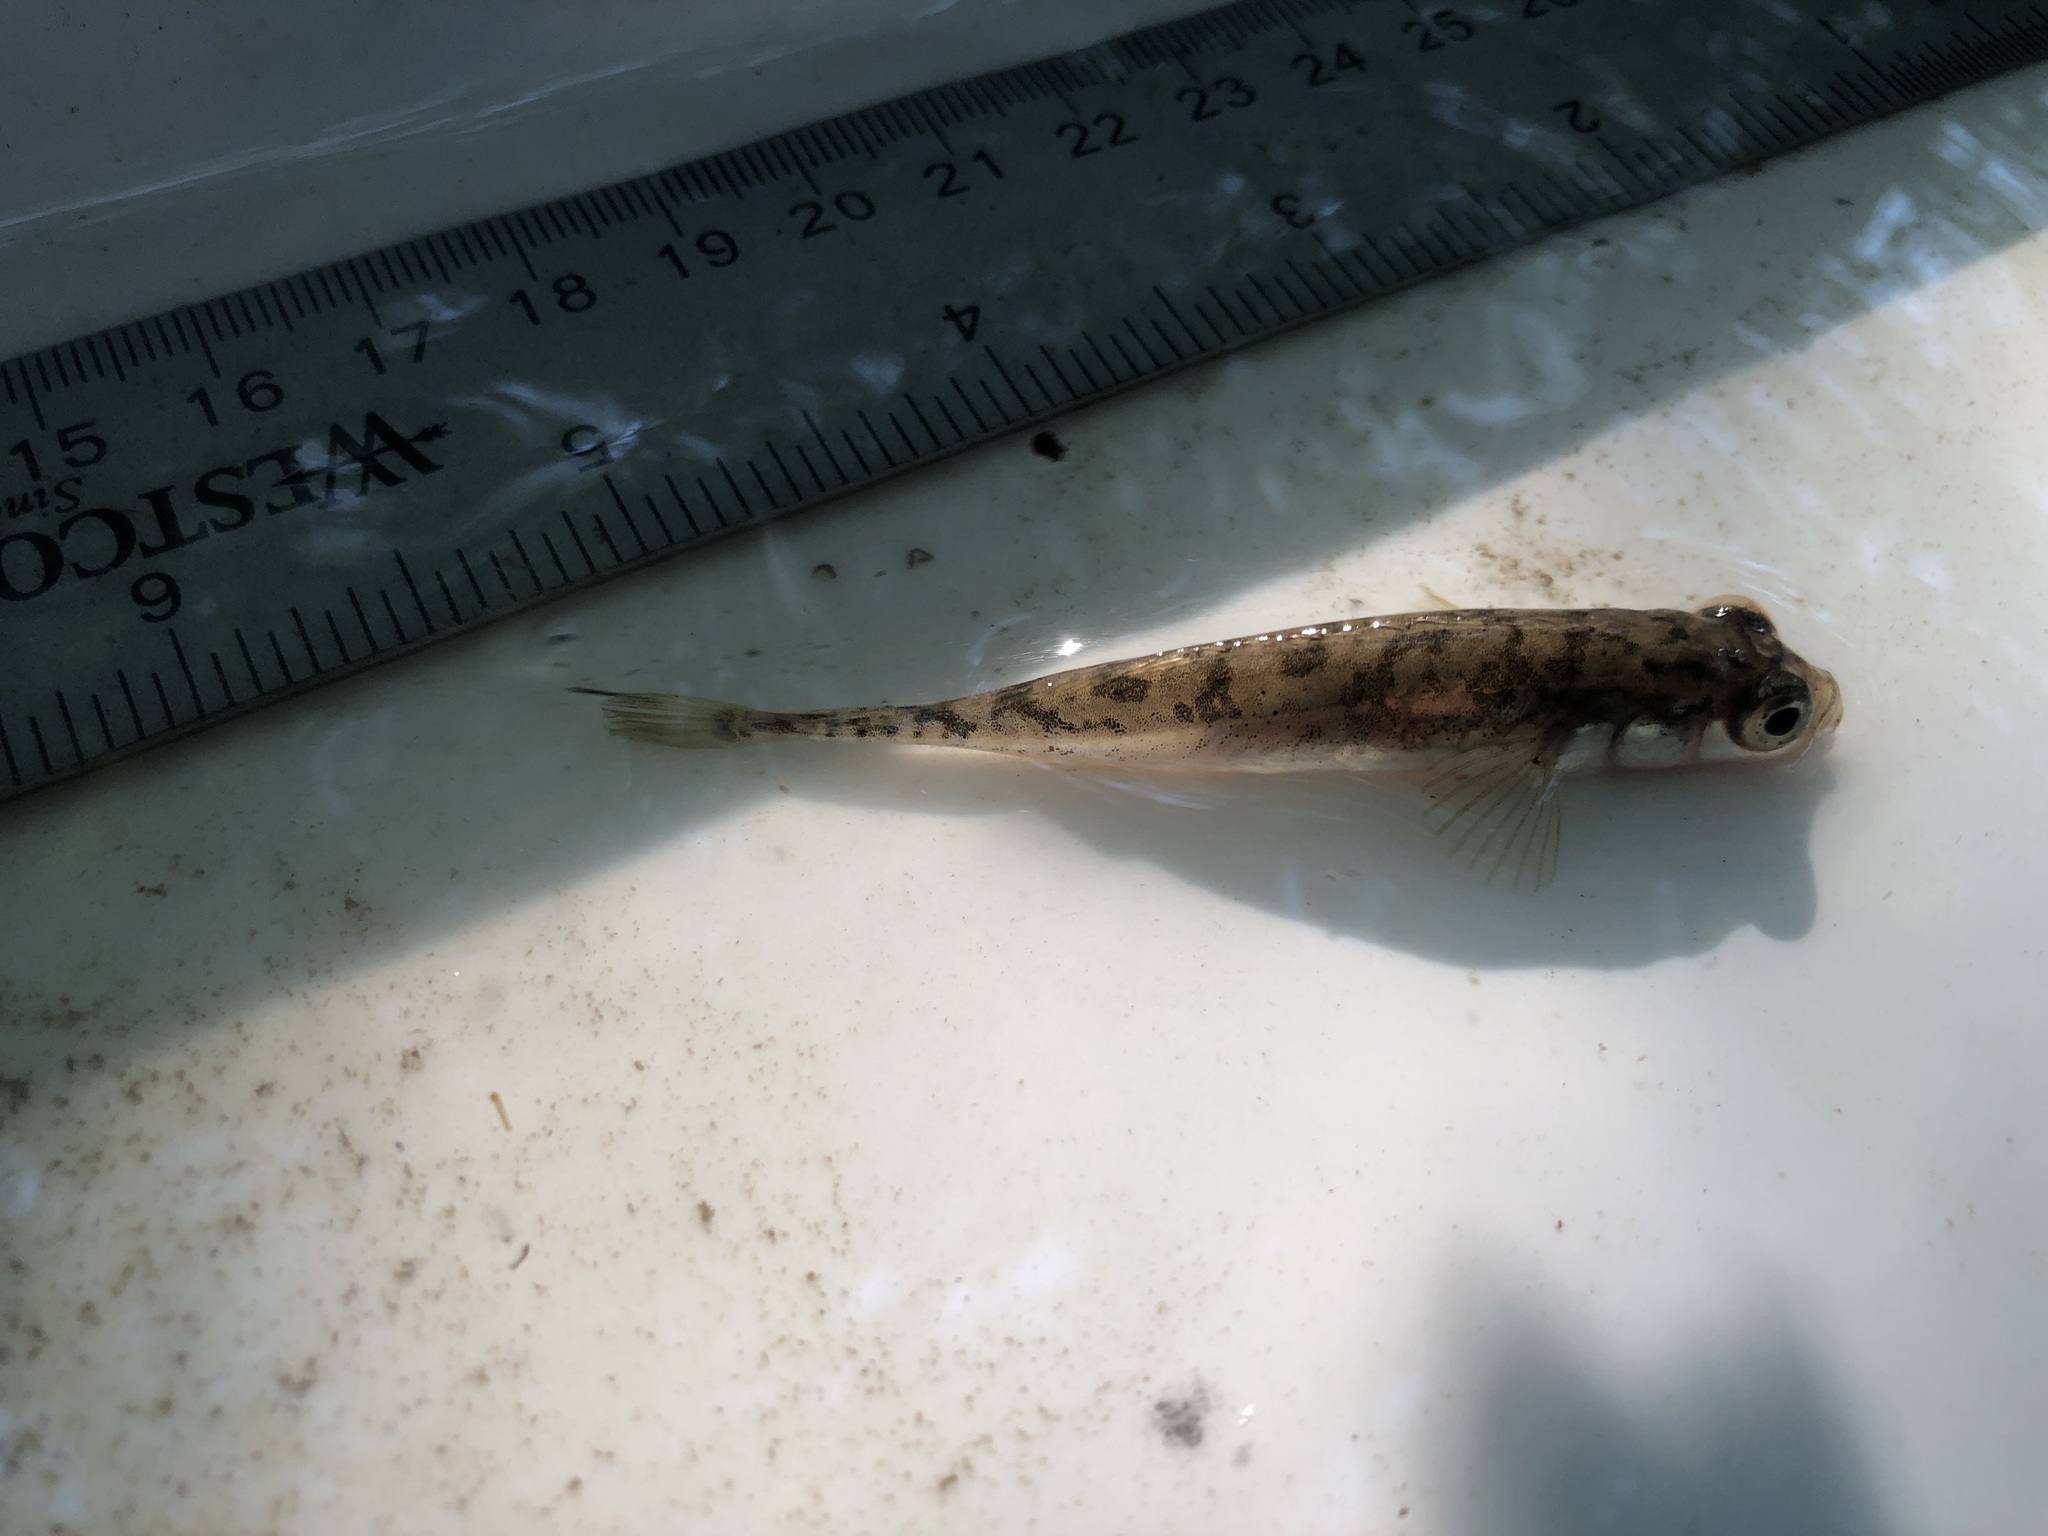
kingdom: Animalia
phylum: Chordata
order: Gasterosteiformes
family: Gasterosteidae
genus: Pungitius
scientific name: Pungitius pungitius
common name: Nine-spined stickleback
